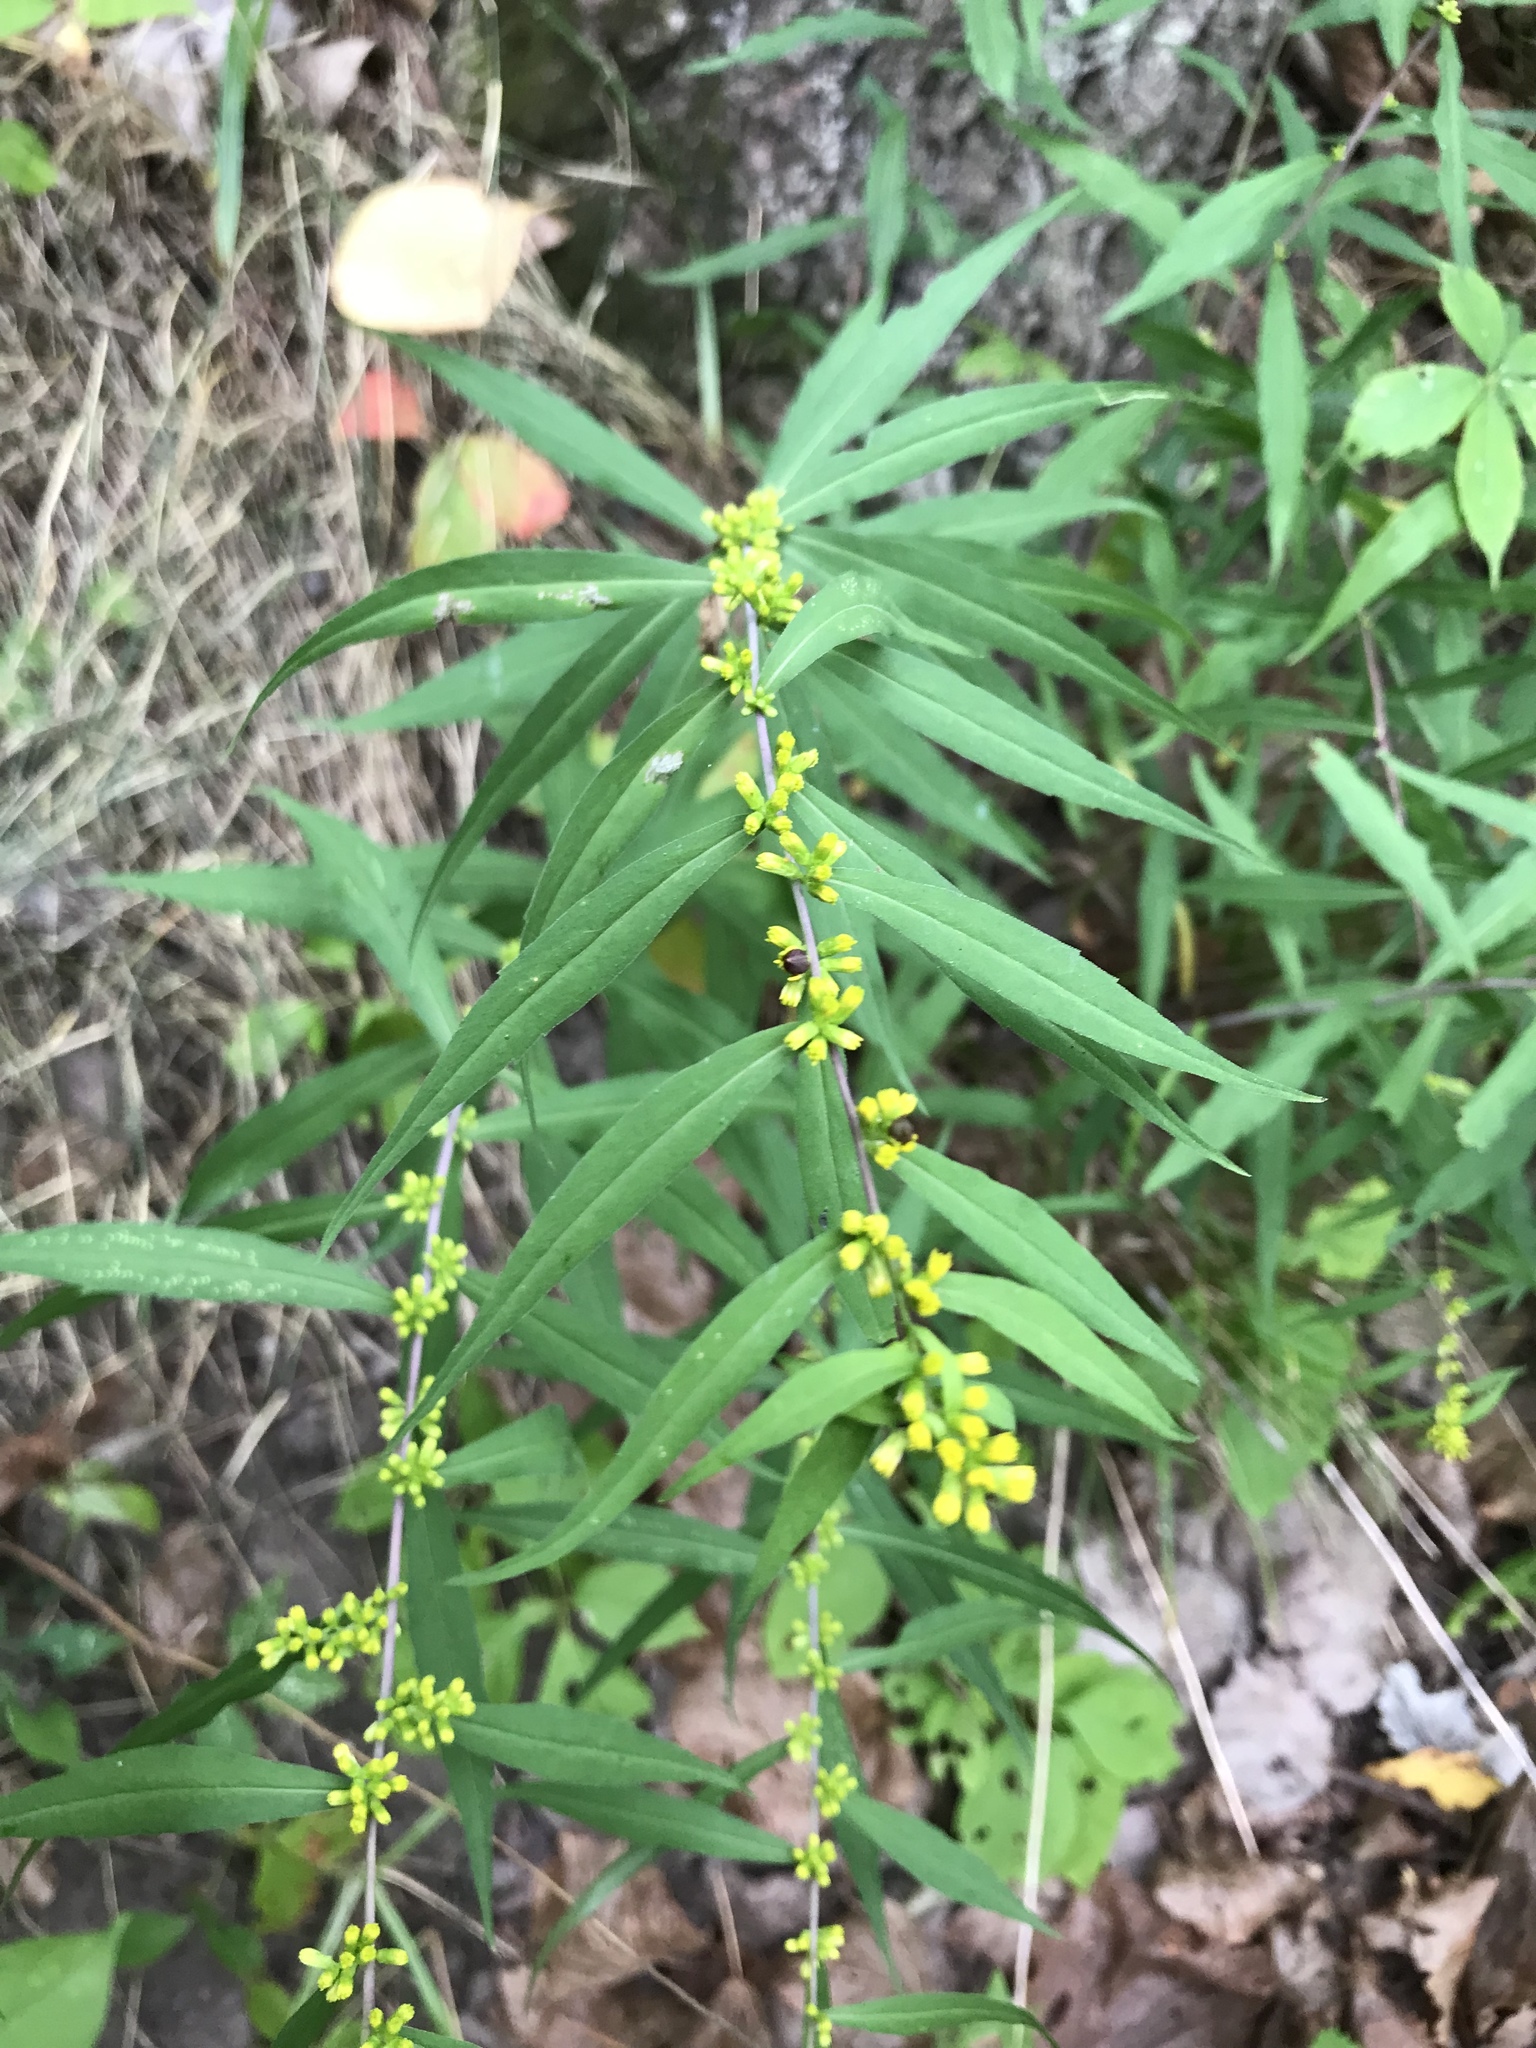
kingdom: Plantae
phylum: Tracheophyta
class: Magnoliopsida
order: Asterales
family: Asteraceae
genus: Solidago
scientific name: Solidago caesia
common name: Woodland goldenrod
